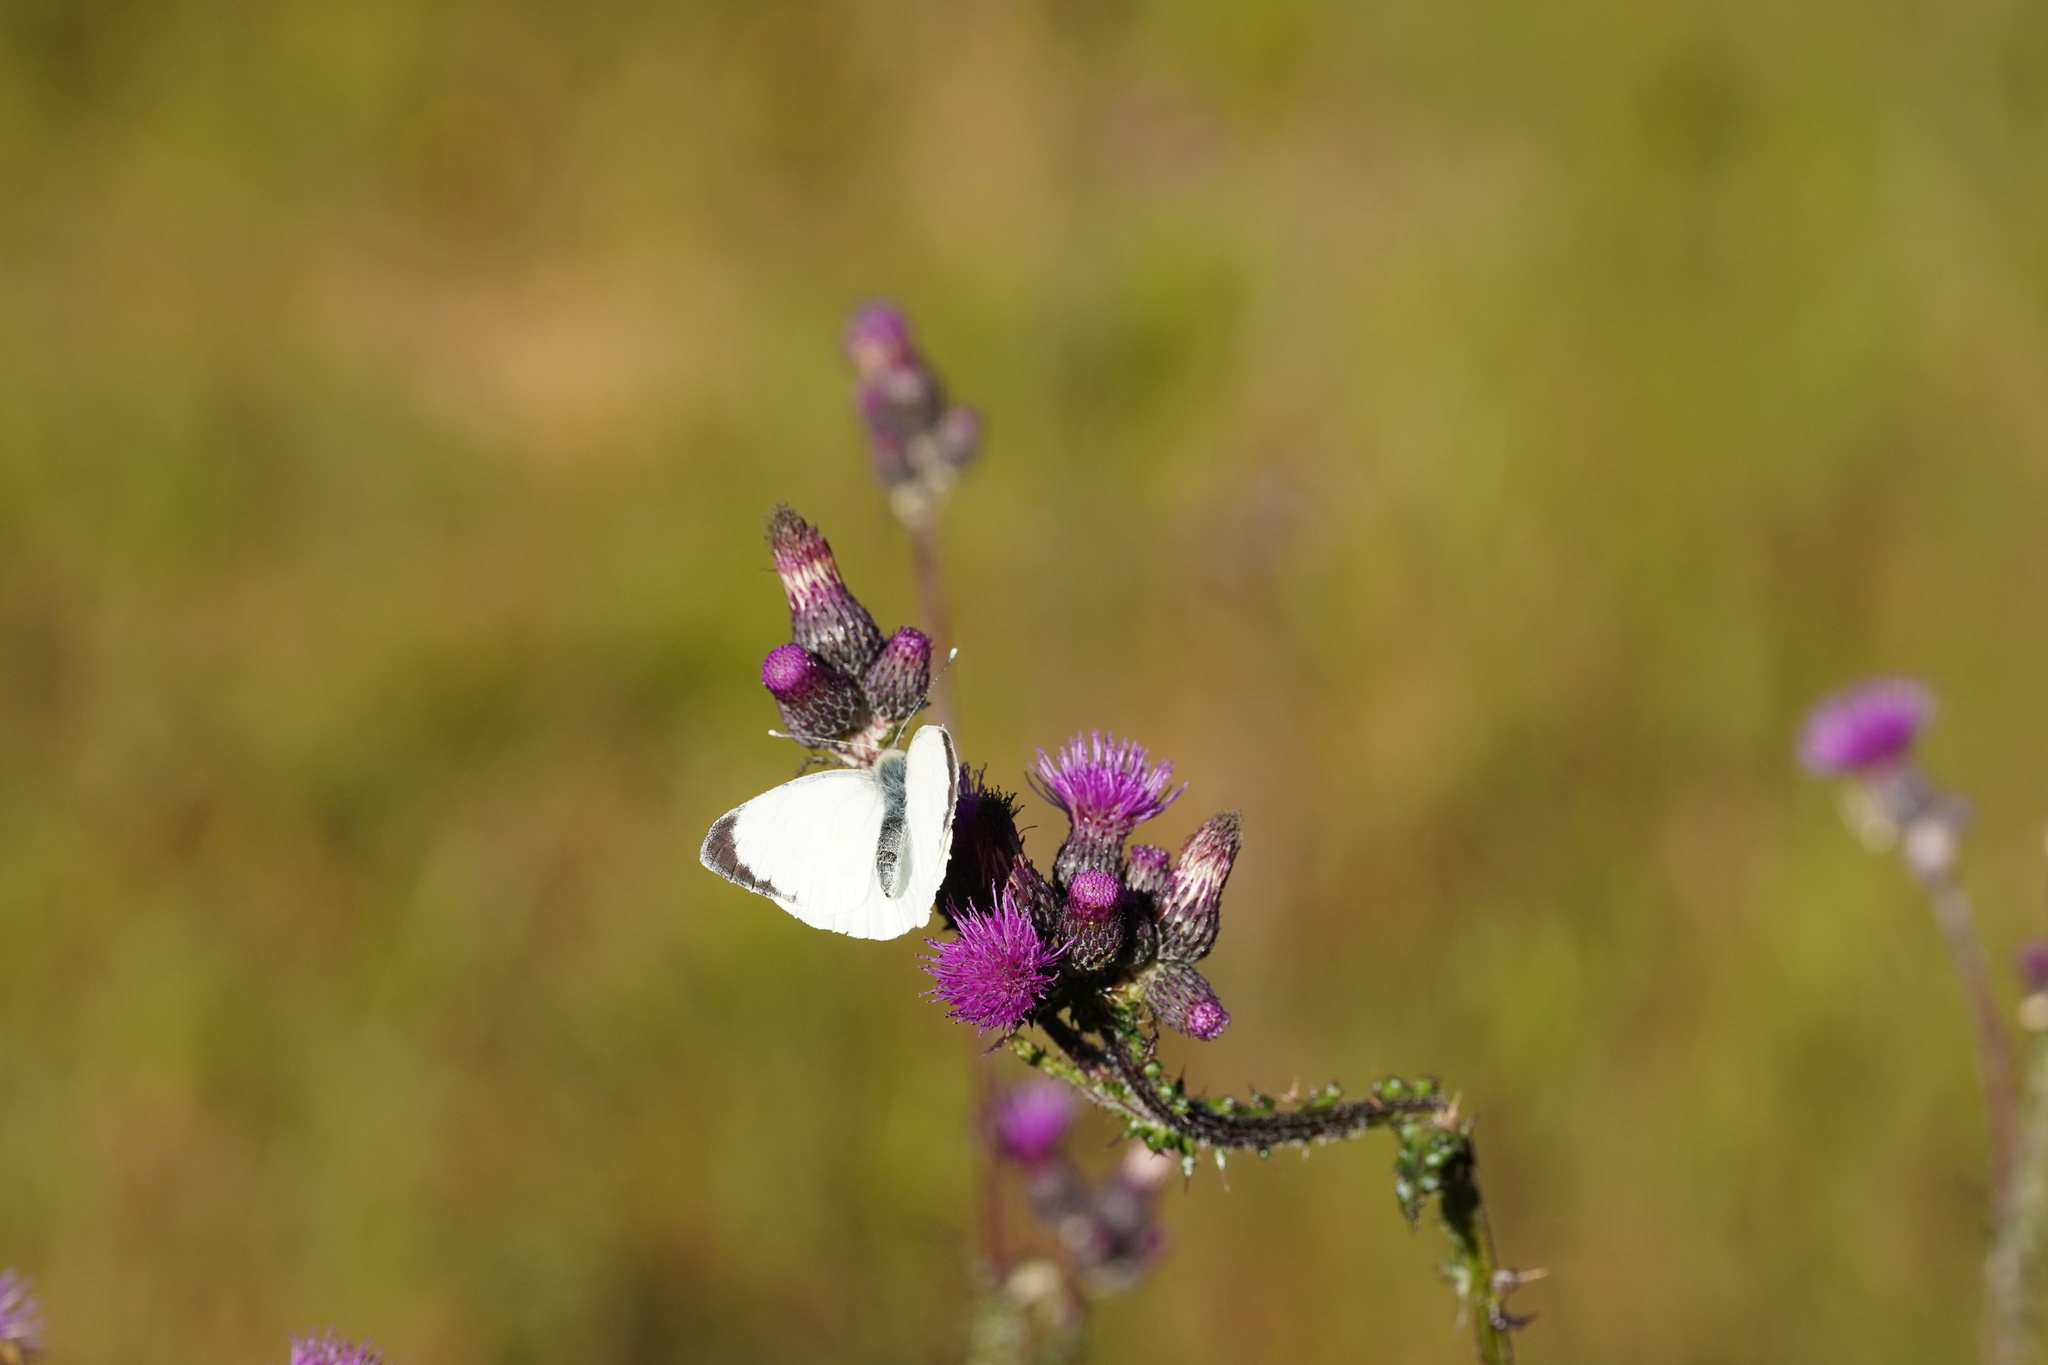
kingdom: Animalia
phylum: Arthropoda
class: Insecta
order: Lepidoptera
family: Pieridae
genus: Pieris
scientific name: Pieris brassicae
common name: Large white
